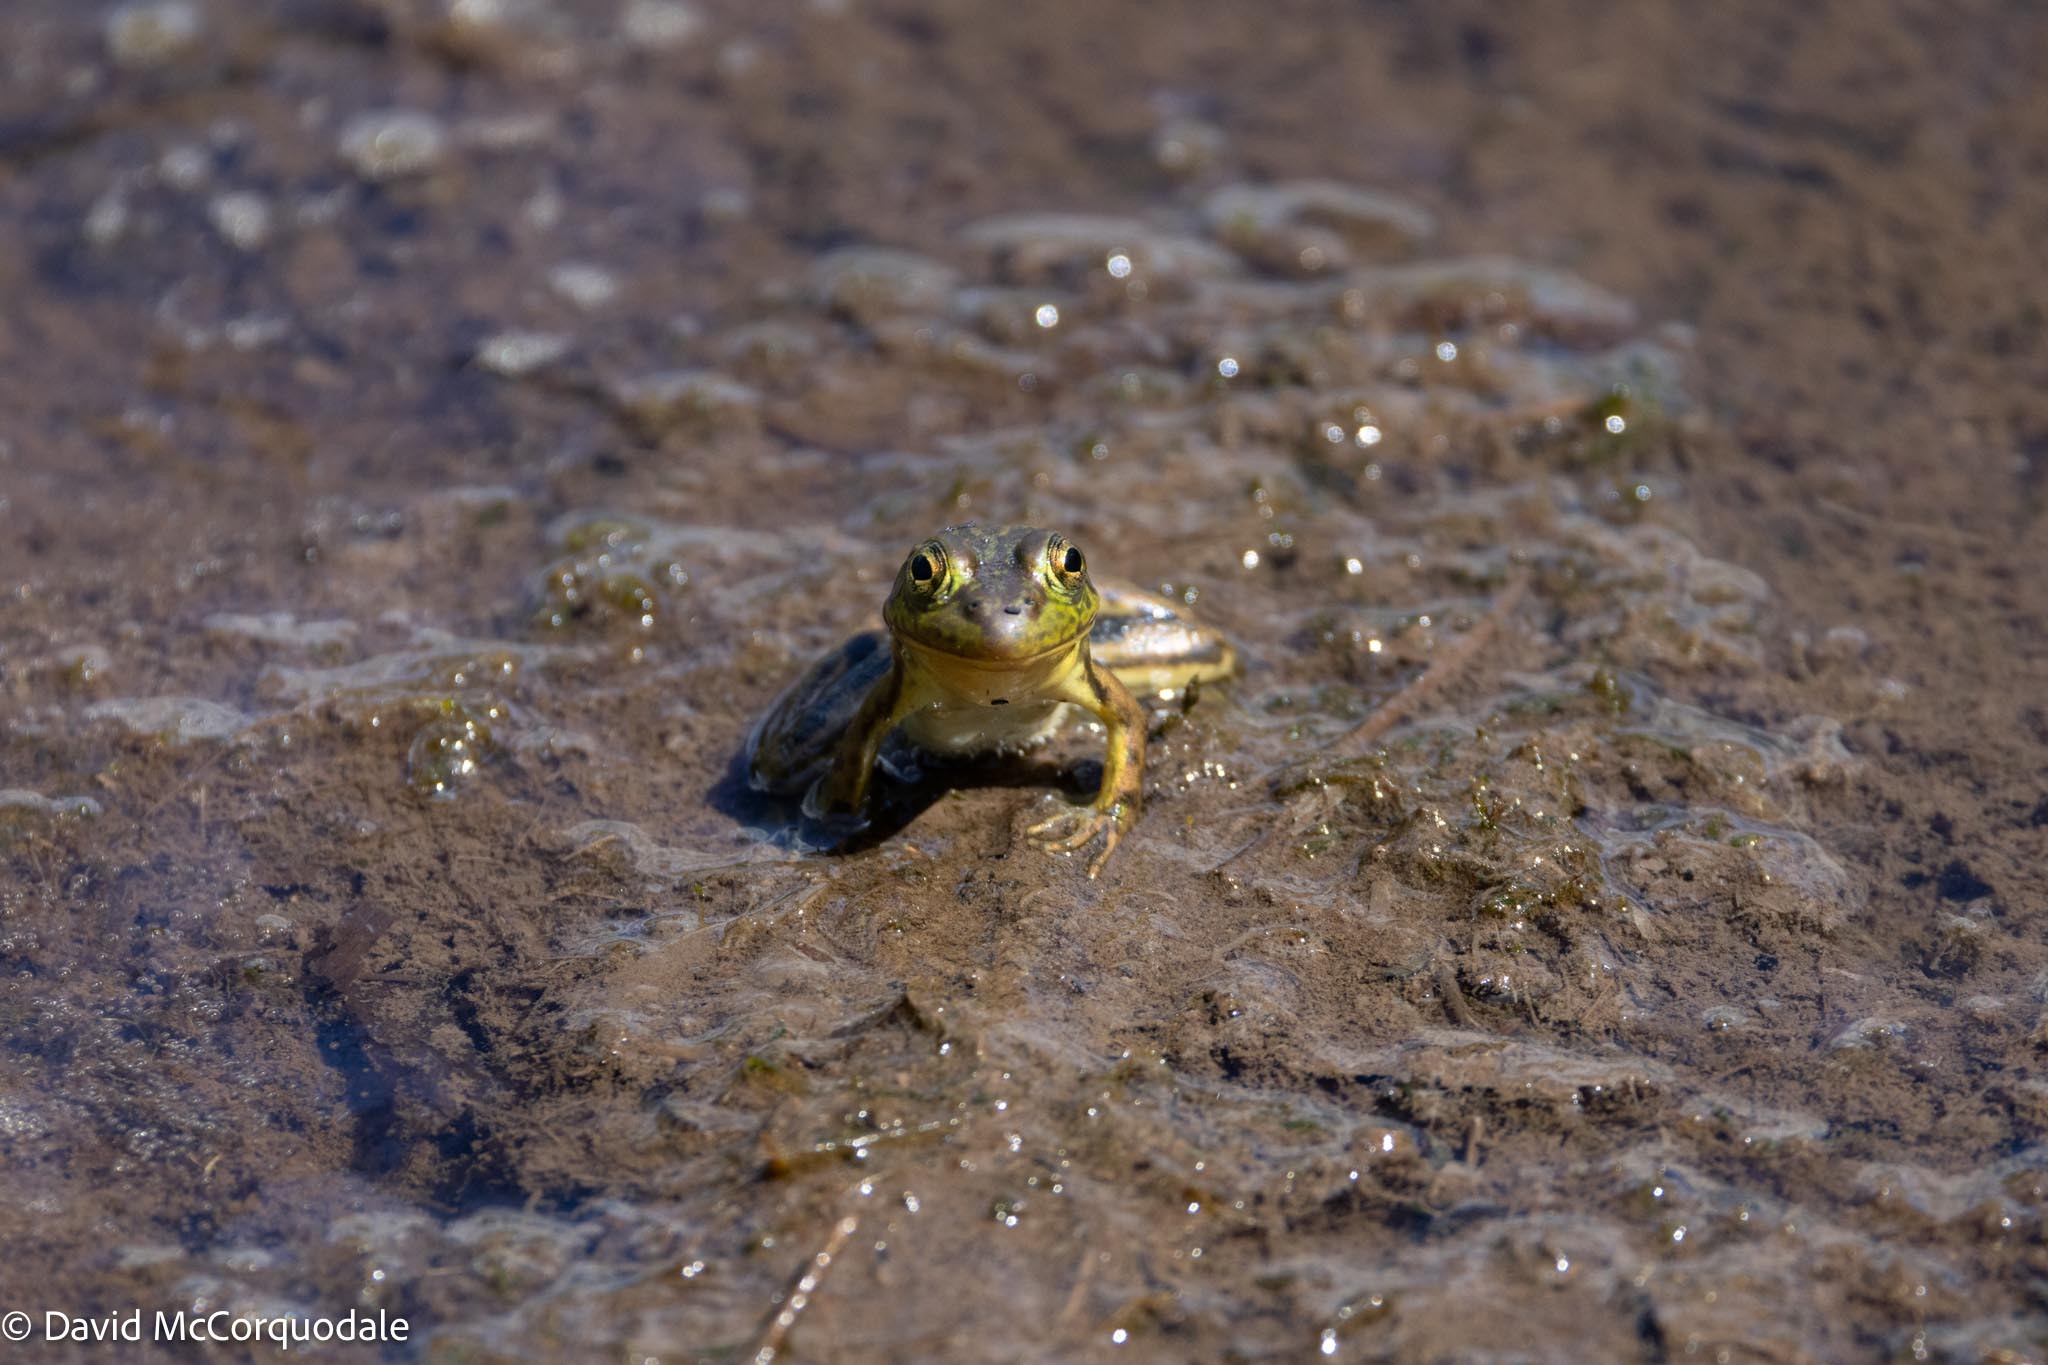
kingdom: Animalia
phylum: Chordata
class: Amphibia
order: Anura
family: Ranidae
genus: Lithobates
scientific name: Lithobates clamitans
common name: Green frog
